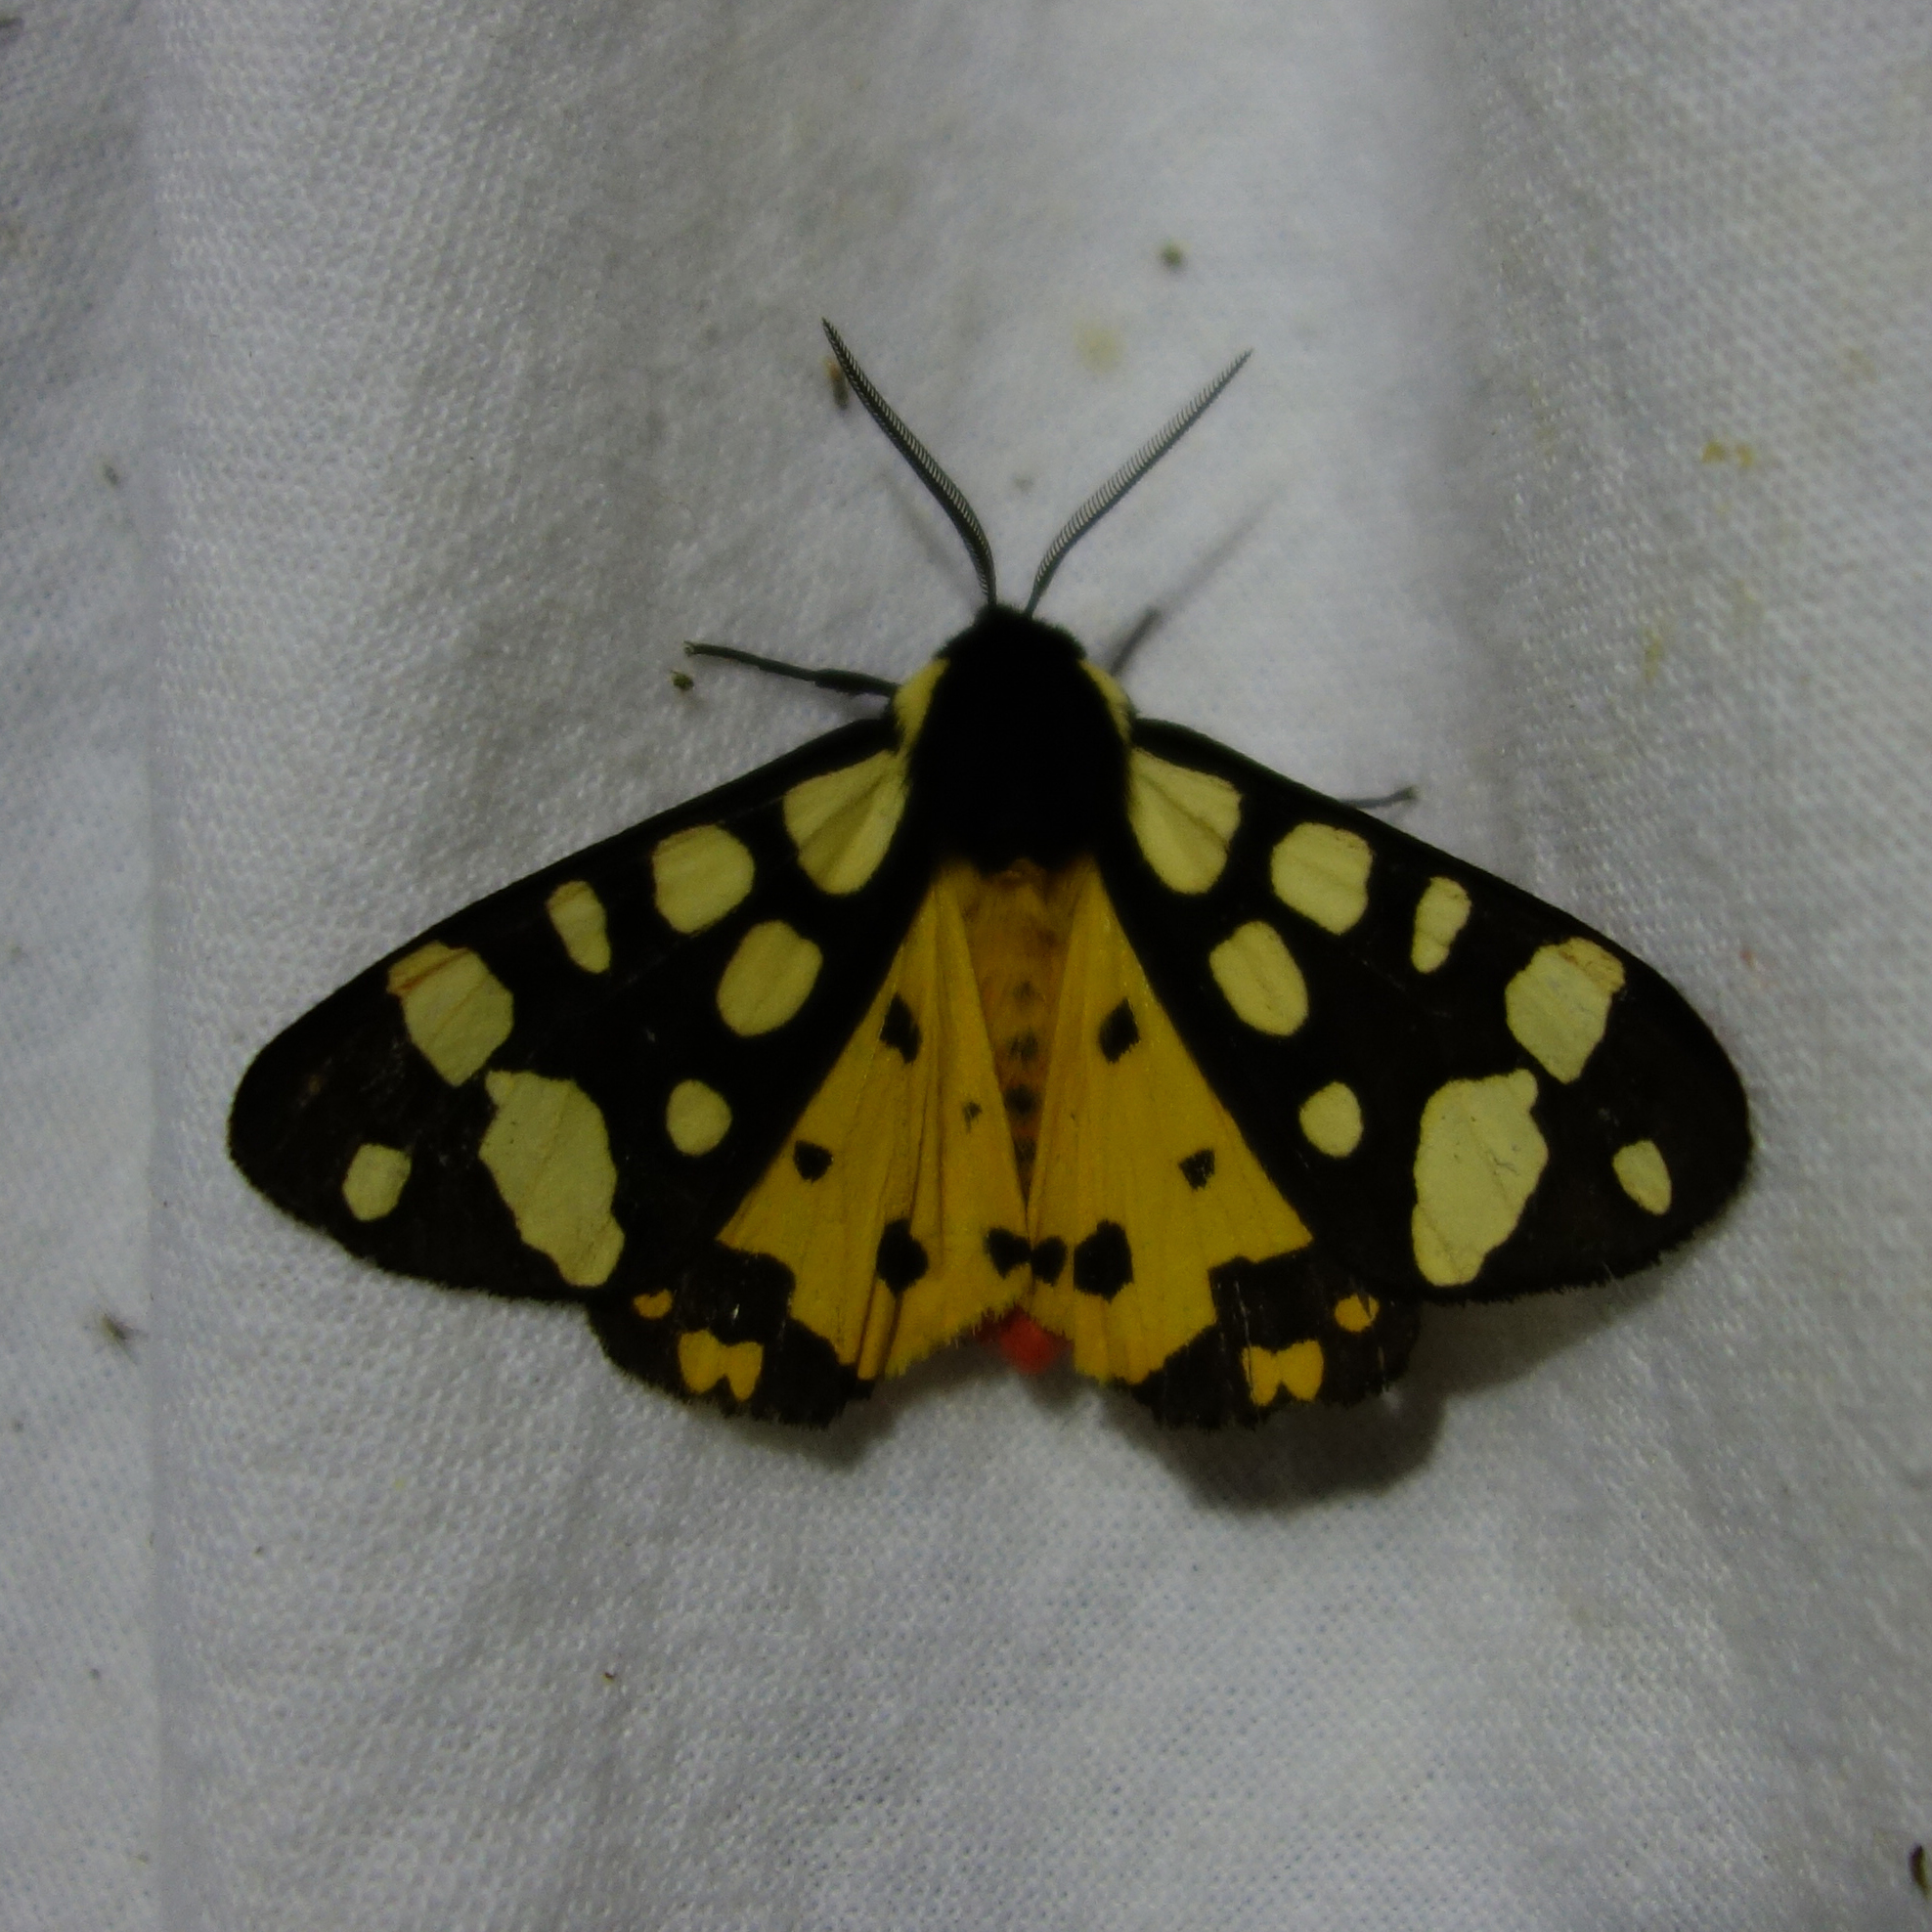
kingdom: Animalia
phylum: Arthropoda
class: Insecta
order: Lepidoptera
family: Erebidae
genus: Epicallia
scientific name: Epicallia villica
